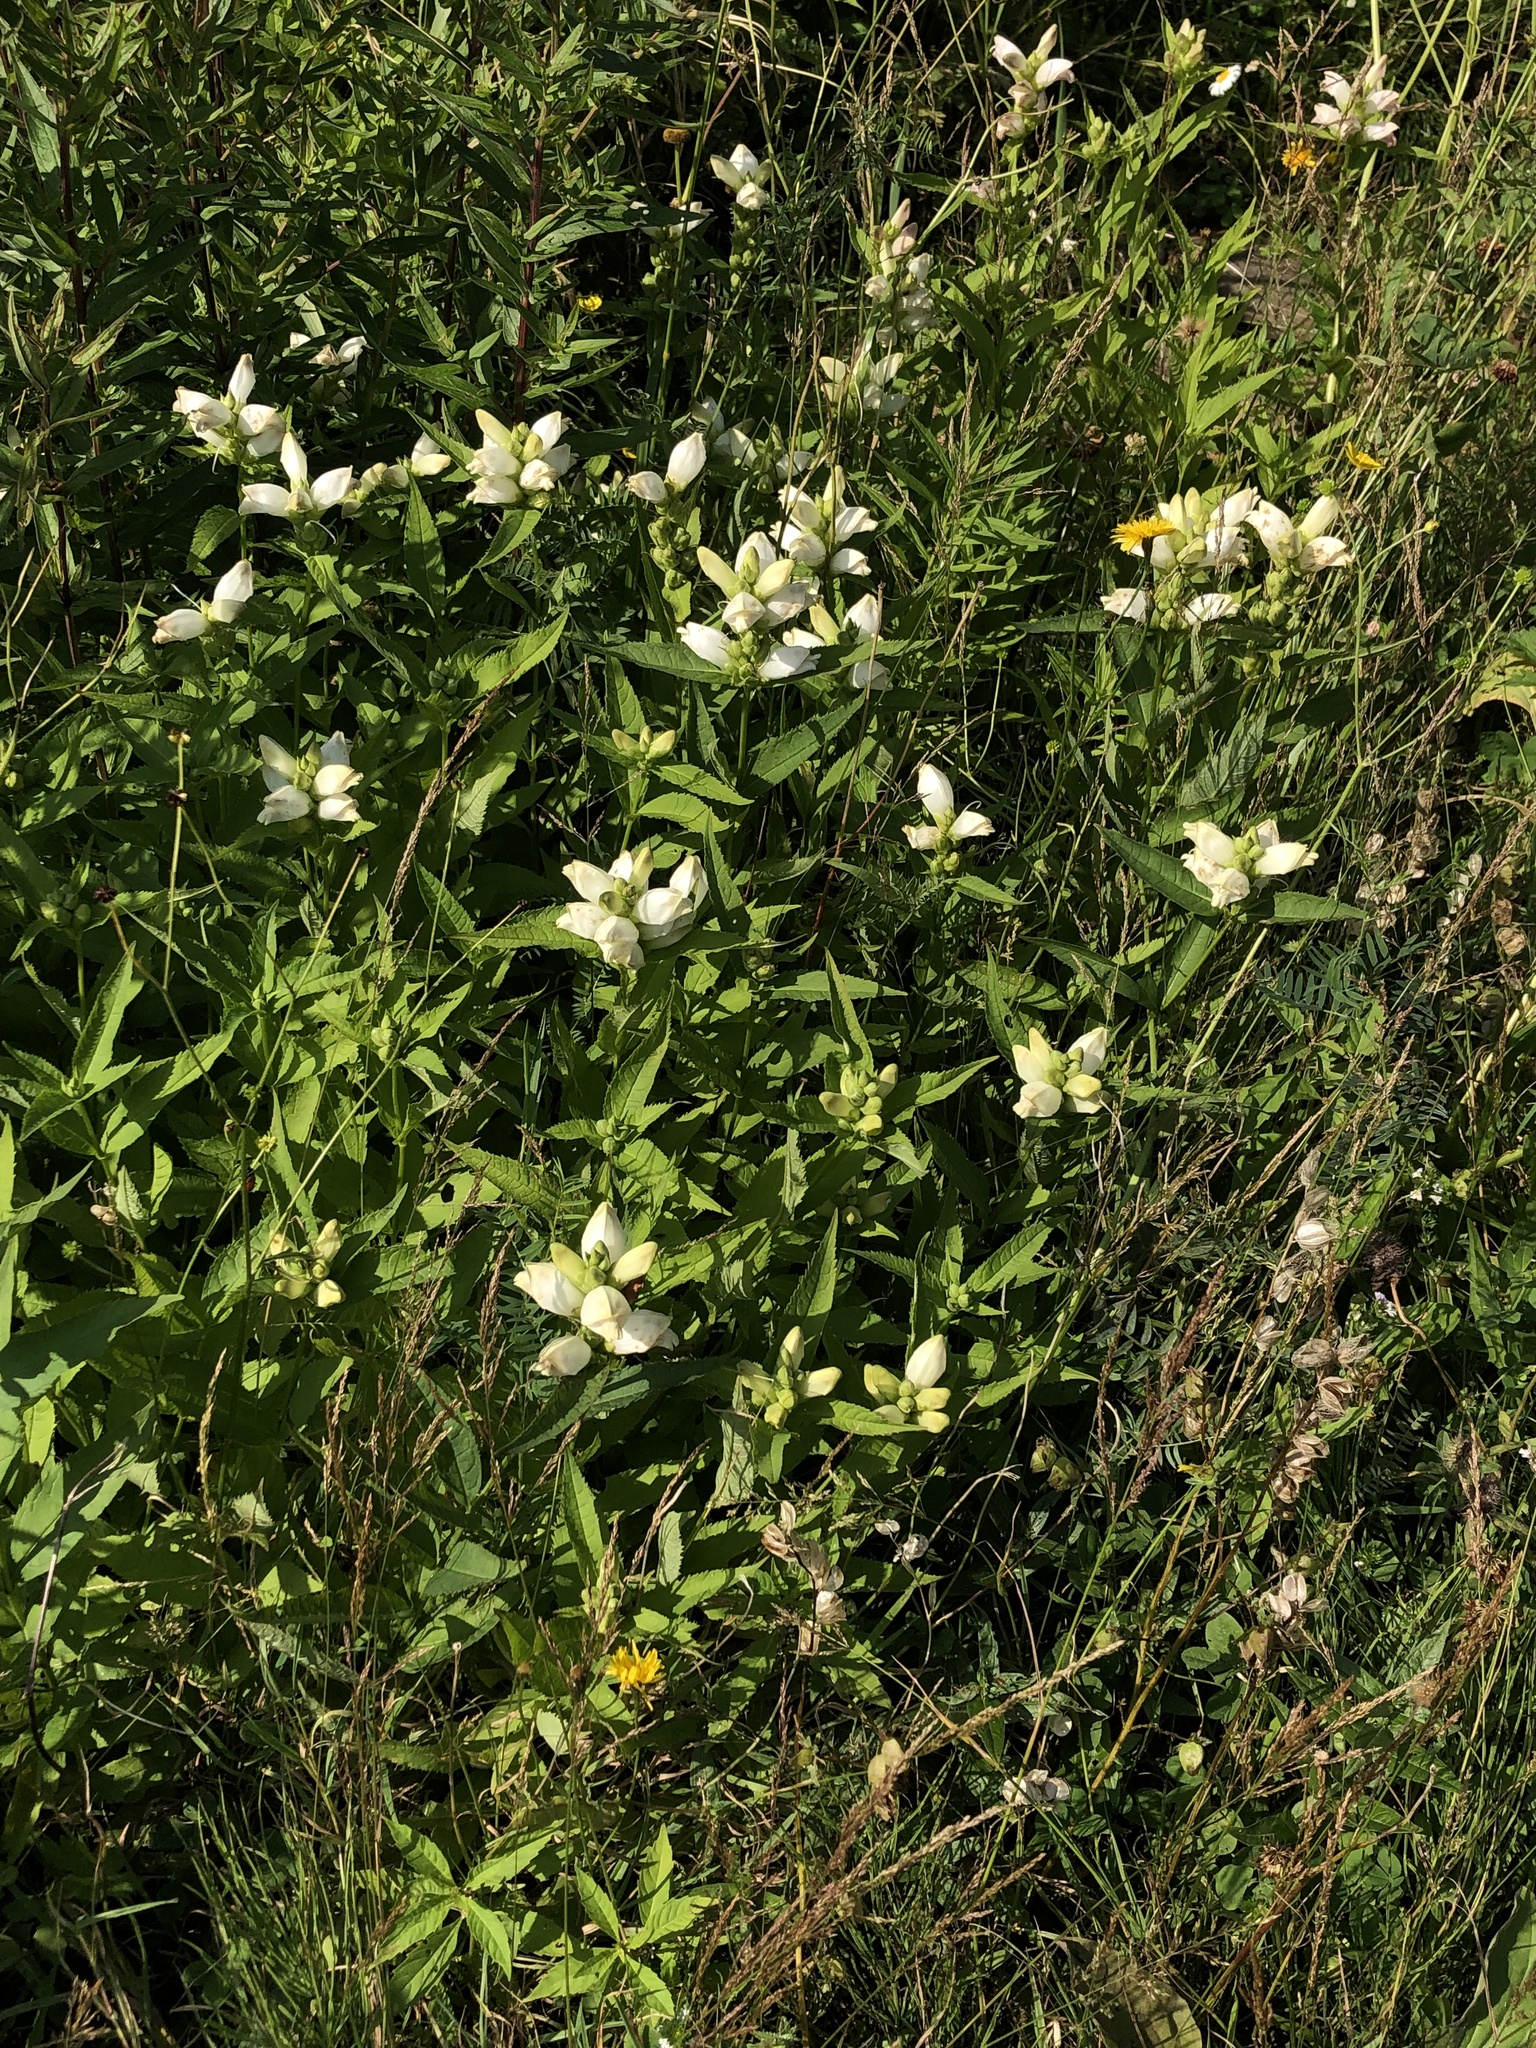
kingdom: Plantae
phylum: Tracheophyta
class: Magnoliopsida
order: Lamiales
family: Plantaginaceae
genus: Chelone
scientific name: Chelone glabra
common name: Snakehead
